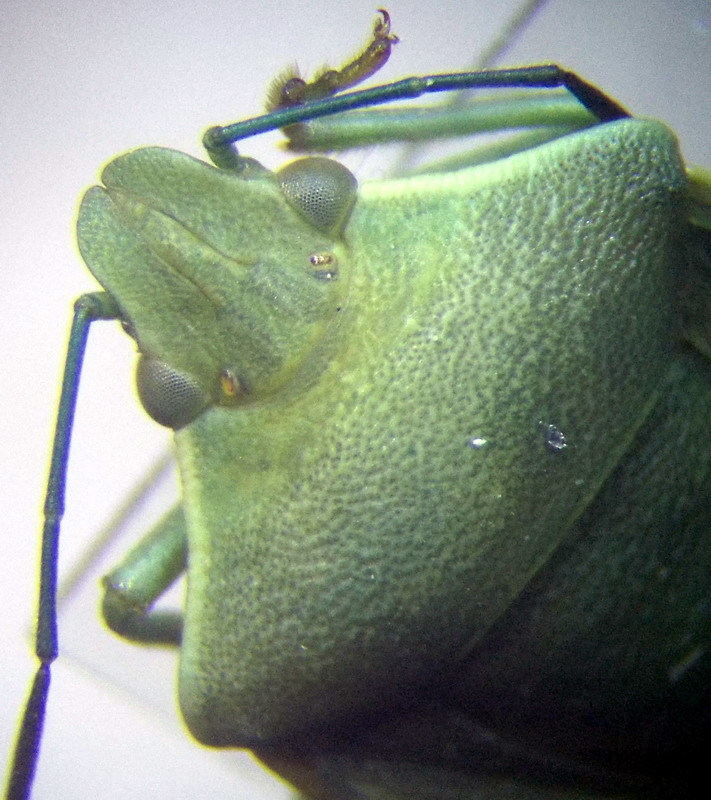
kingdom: Animalia
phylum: Arthropoda
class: Insecta
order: Hemiptera
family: Pentatomidae
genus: Brachynema
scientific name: Brachynema germarii
